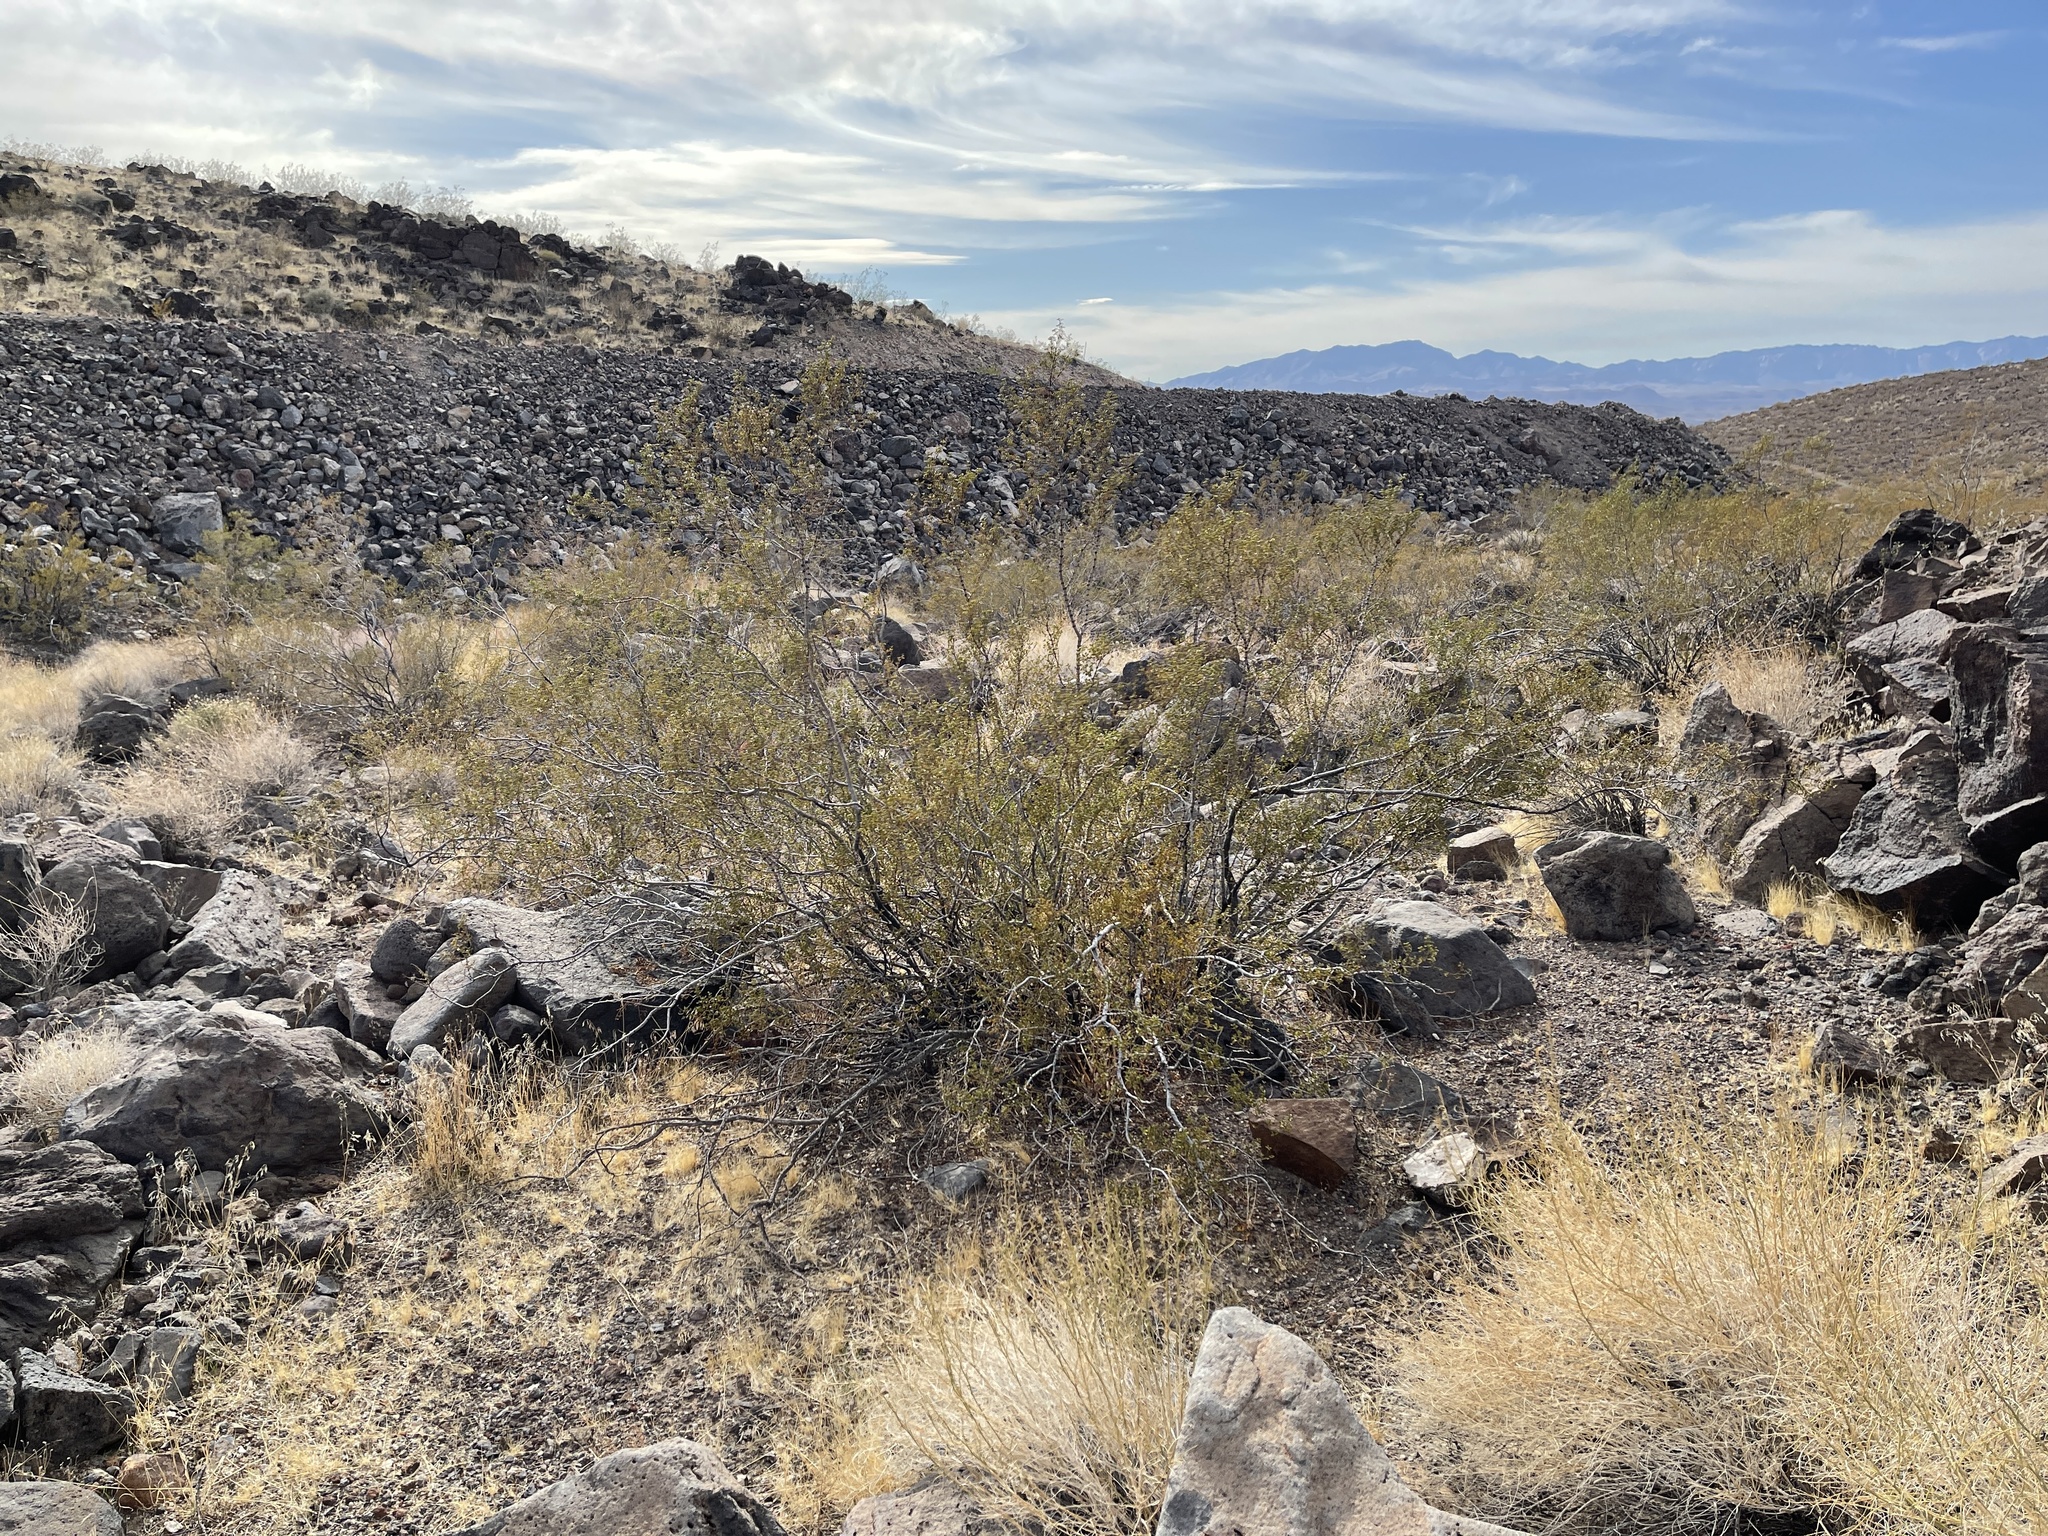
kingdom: Plantae
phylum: Tracheophyta
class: Magnoliopsida
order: Zygophyllales
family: Zygophyllaceae
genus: Larrea
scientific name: Larrea tridentata
